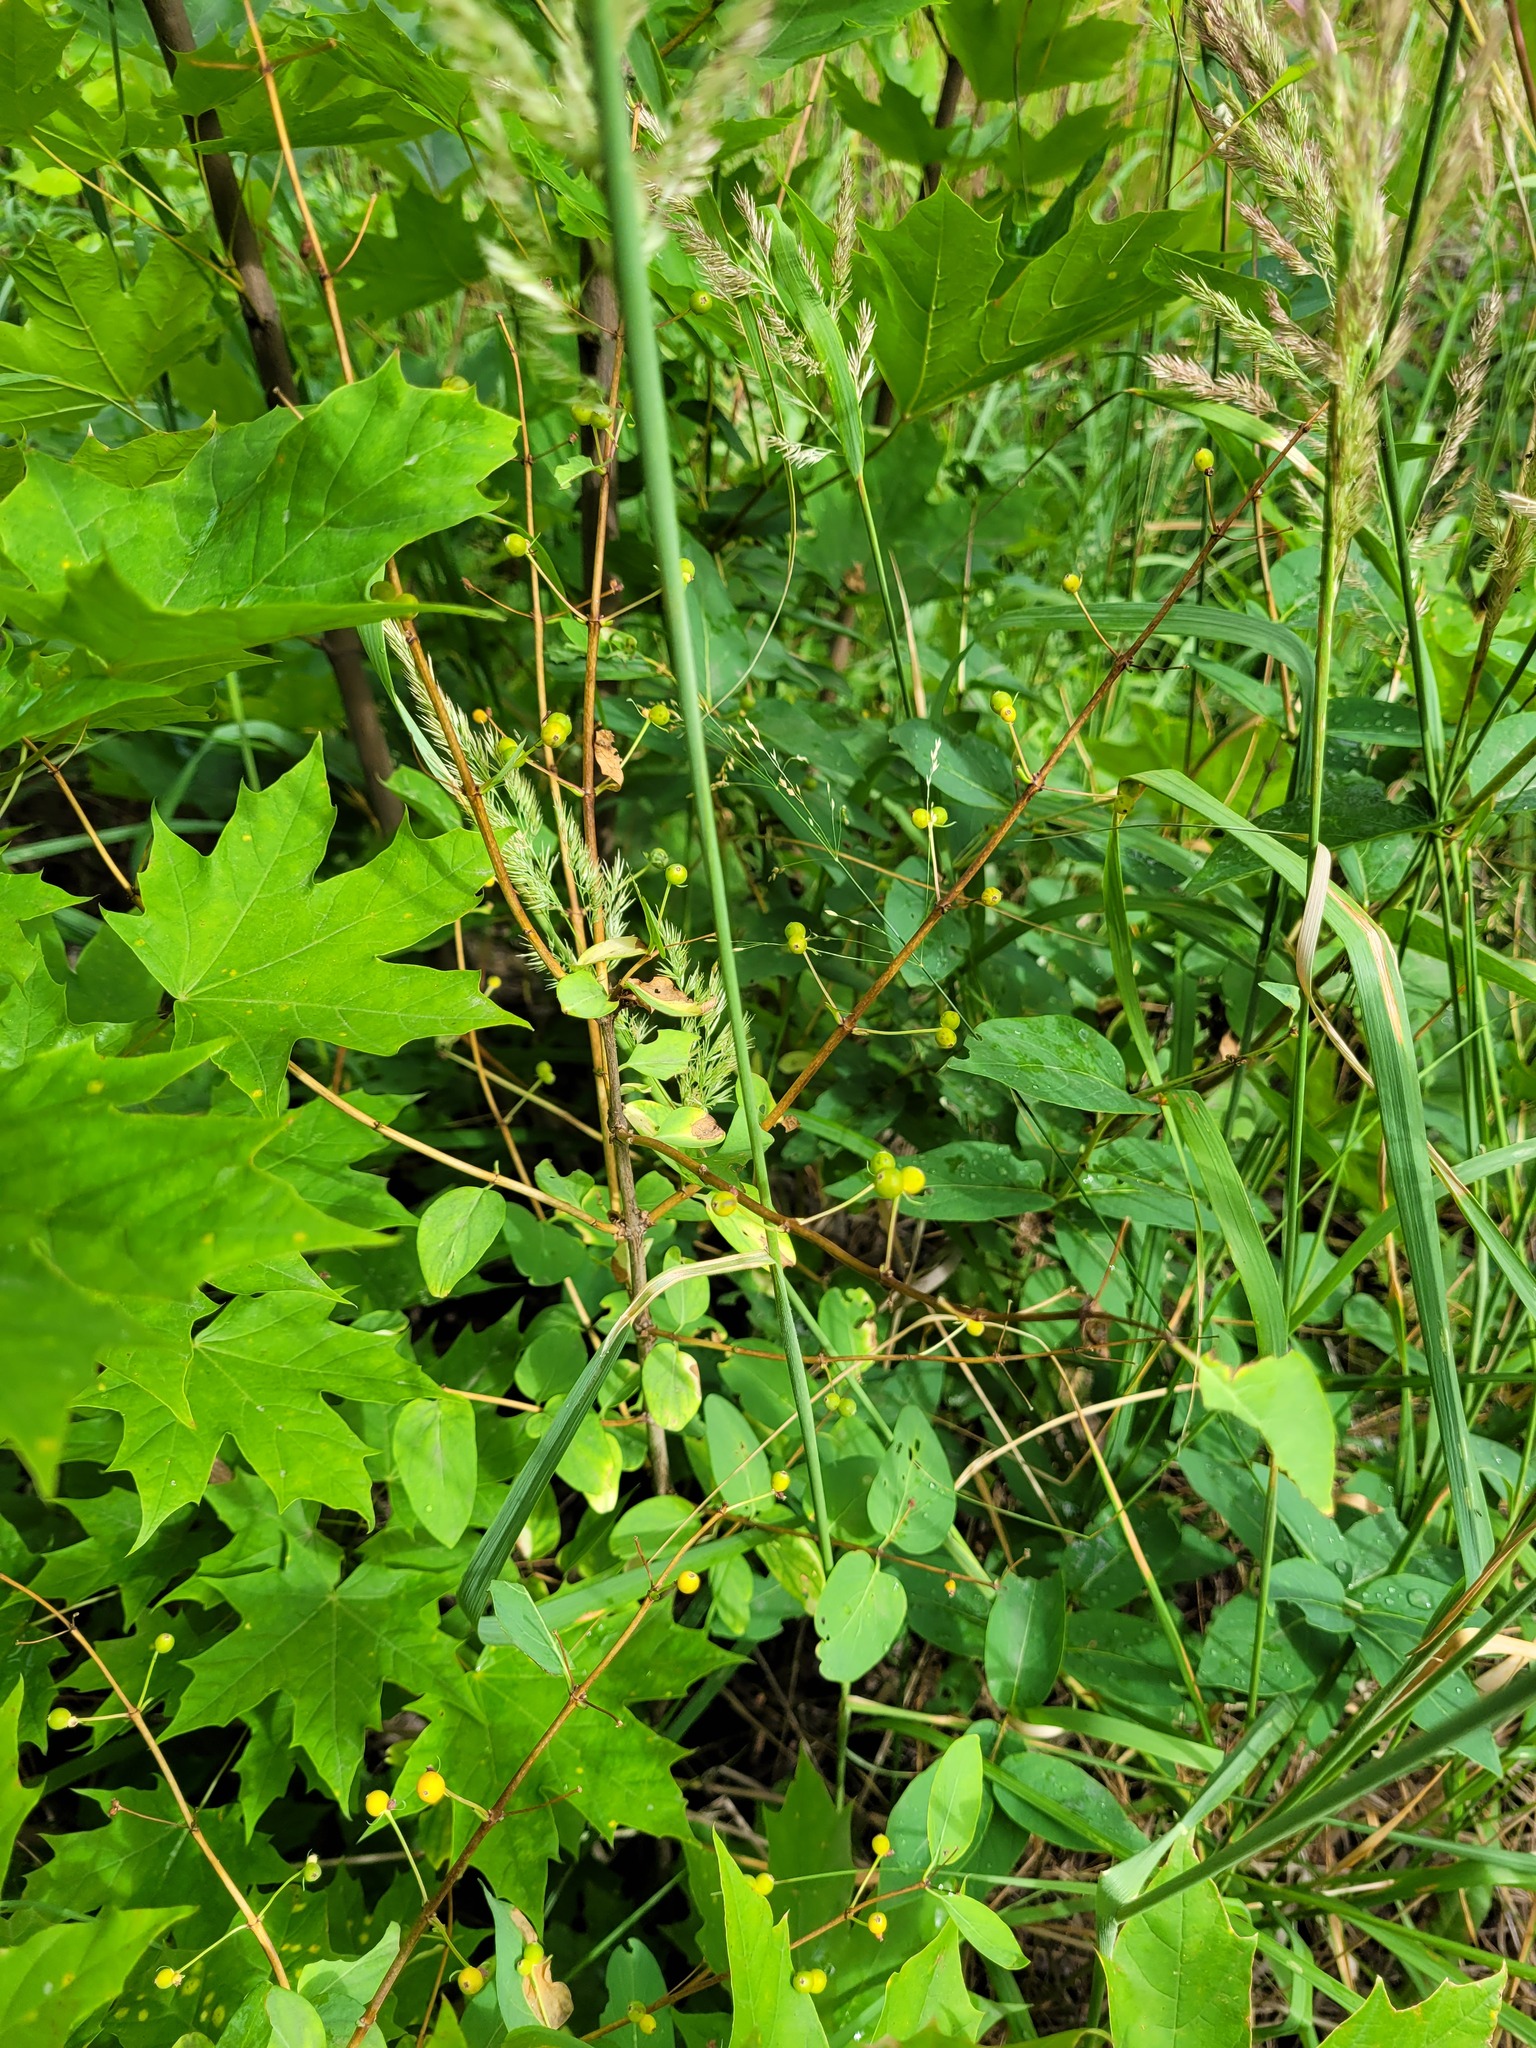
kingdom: Plantae
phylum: Tracheophyta
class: Magnoliopsida
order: Dipsacales
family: Caprifoliaceae
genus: Lonicera
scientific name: Lonicera tatarica
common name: Tatarian honeysuckle
